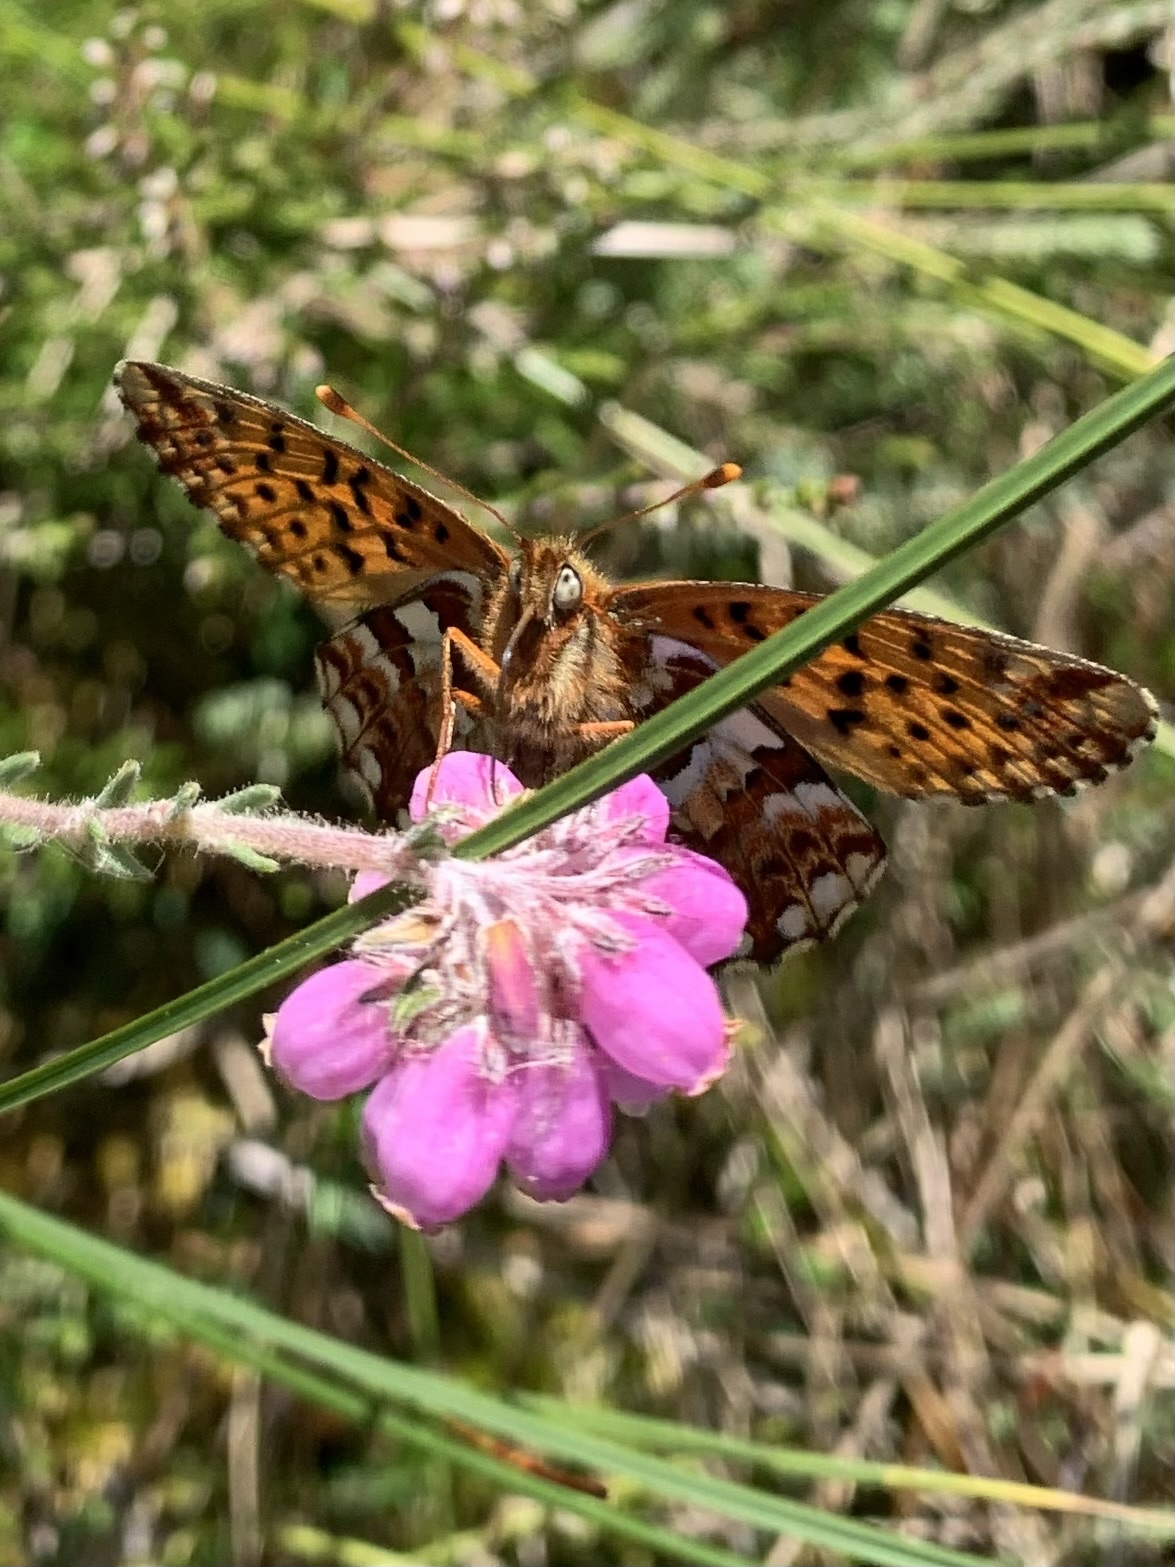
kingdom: Animalia
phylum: Arthropoda
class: Insecta
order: Lepidoptera
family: Nymphalidae
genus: Boloria
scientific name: Boloria aquilonaris
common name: Cranberry fritillary
